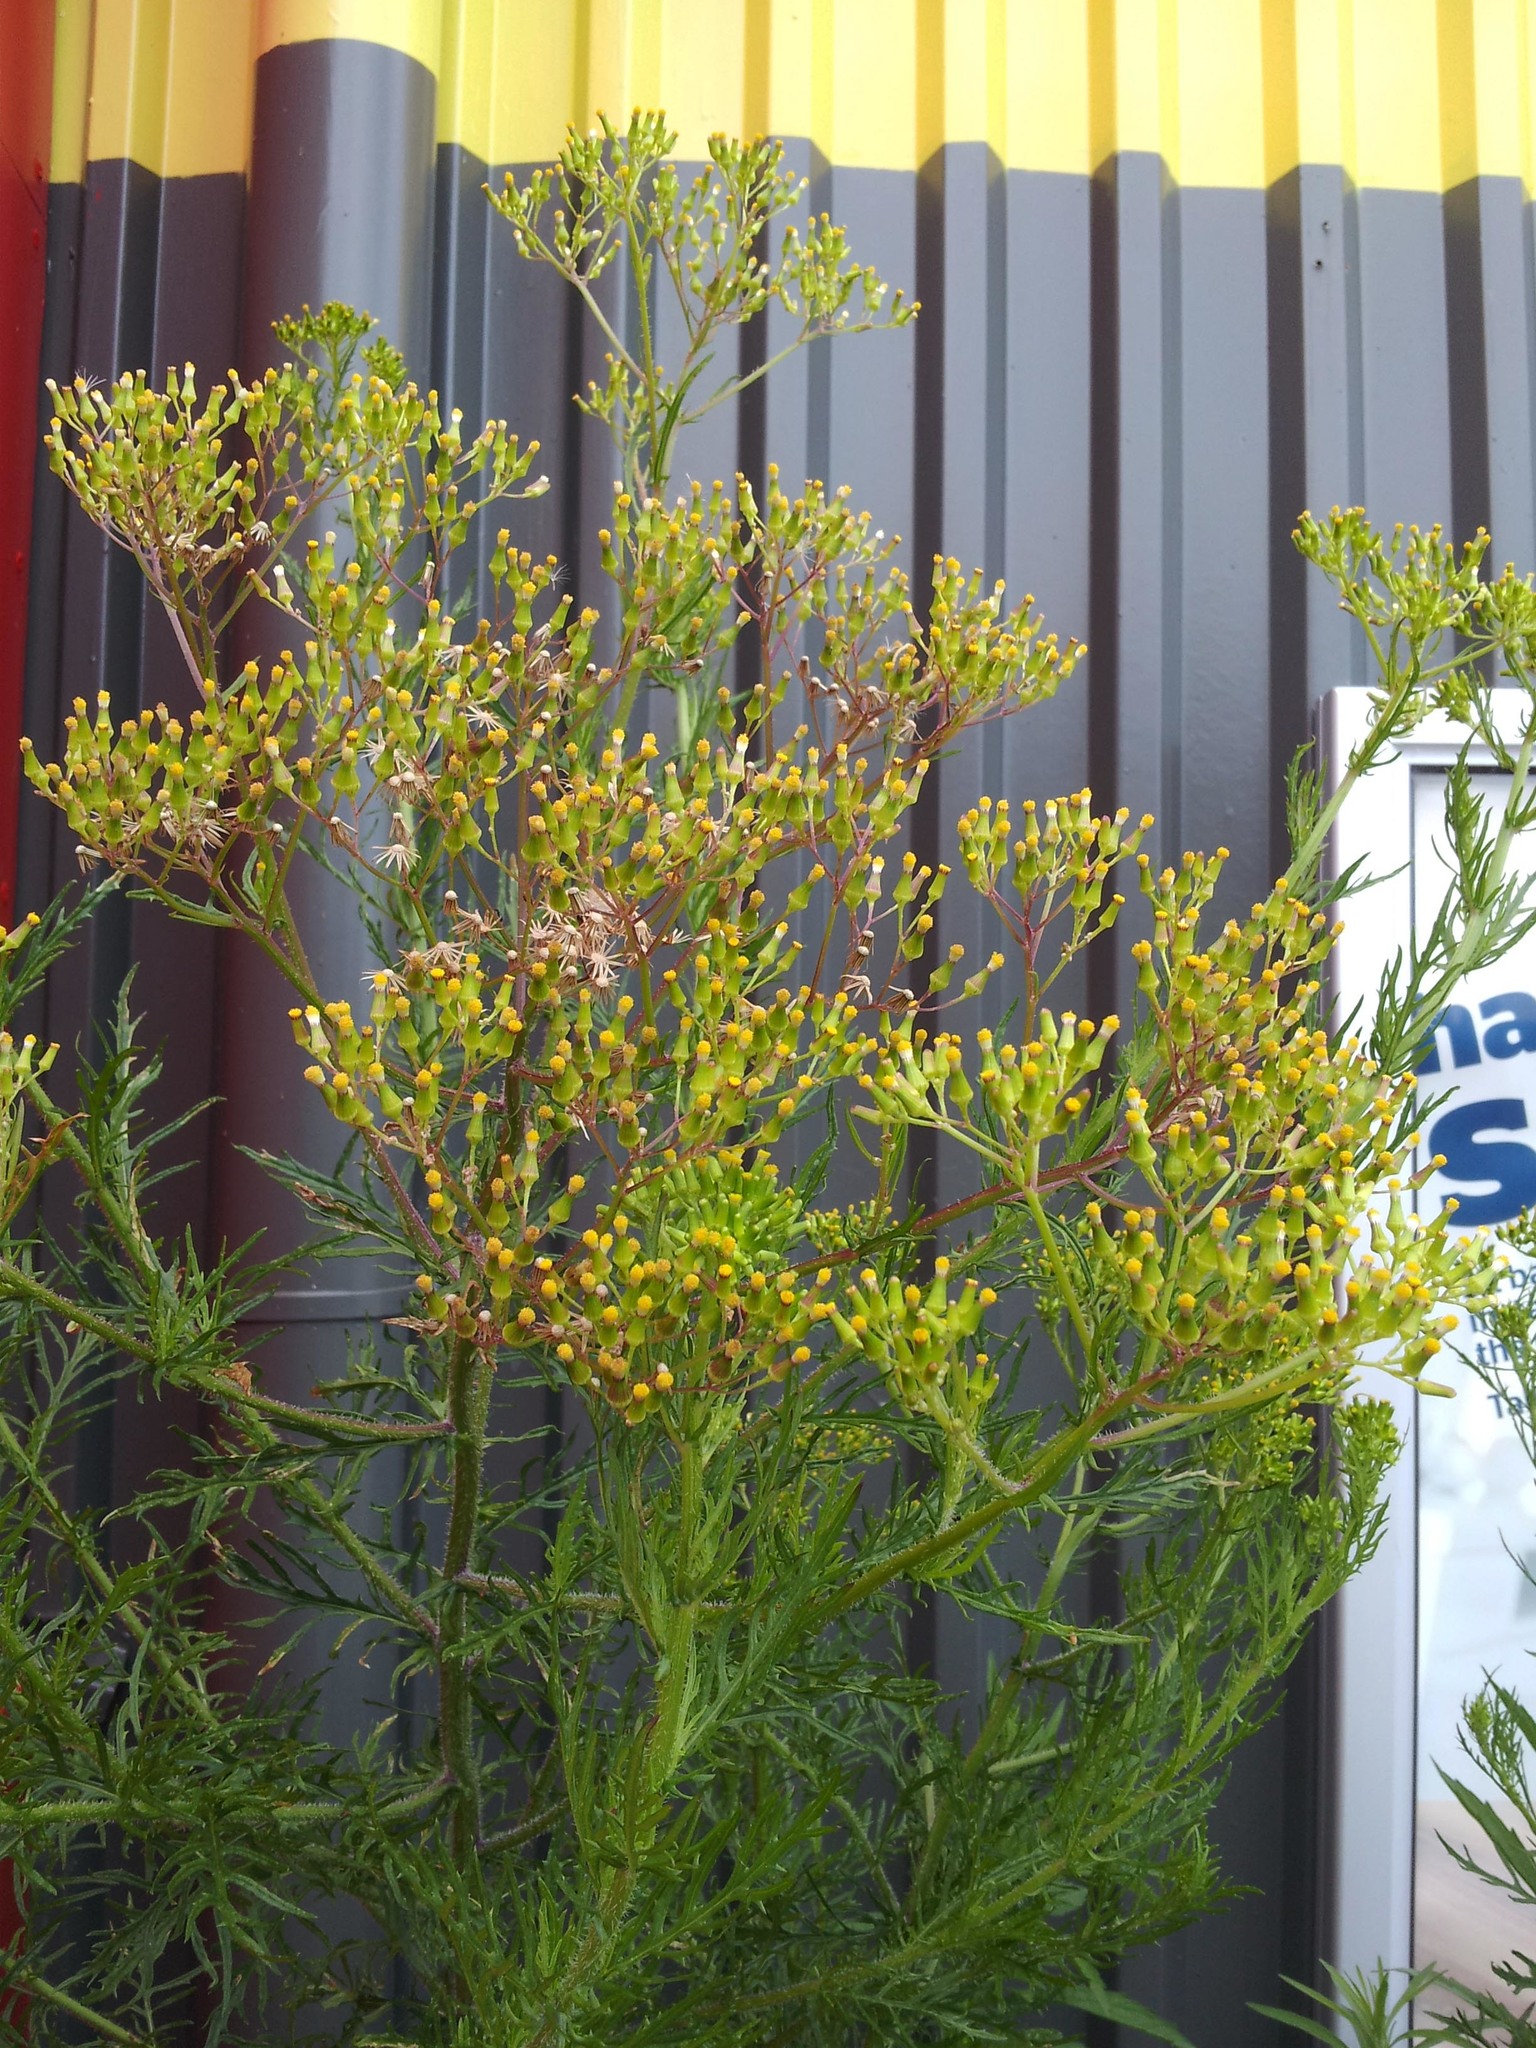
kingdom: Plantae
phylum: Tracheophyta
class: Magnoliopsida
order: Asterales
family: Asteraceae
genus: Senecio
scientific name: Senecio esleri
